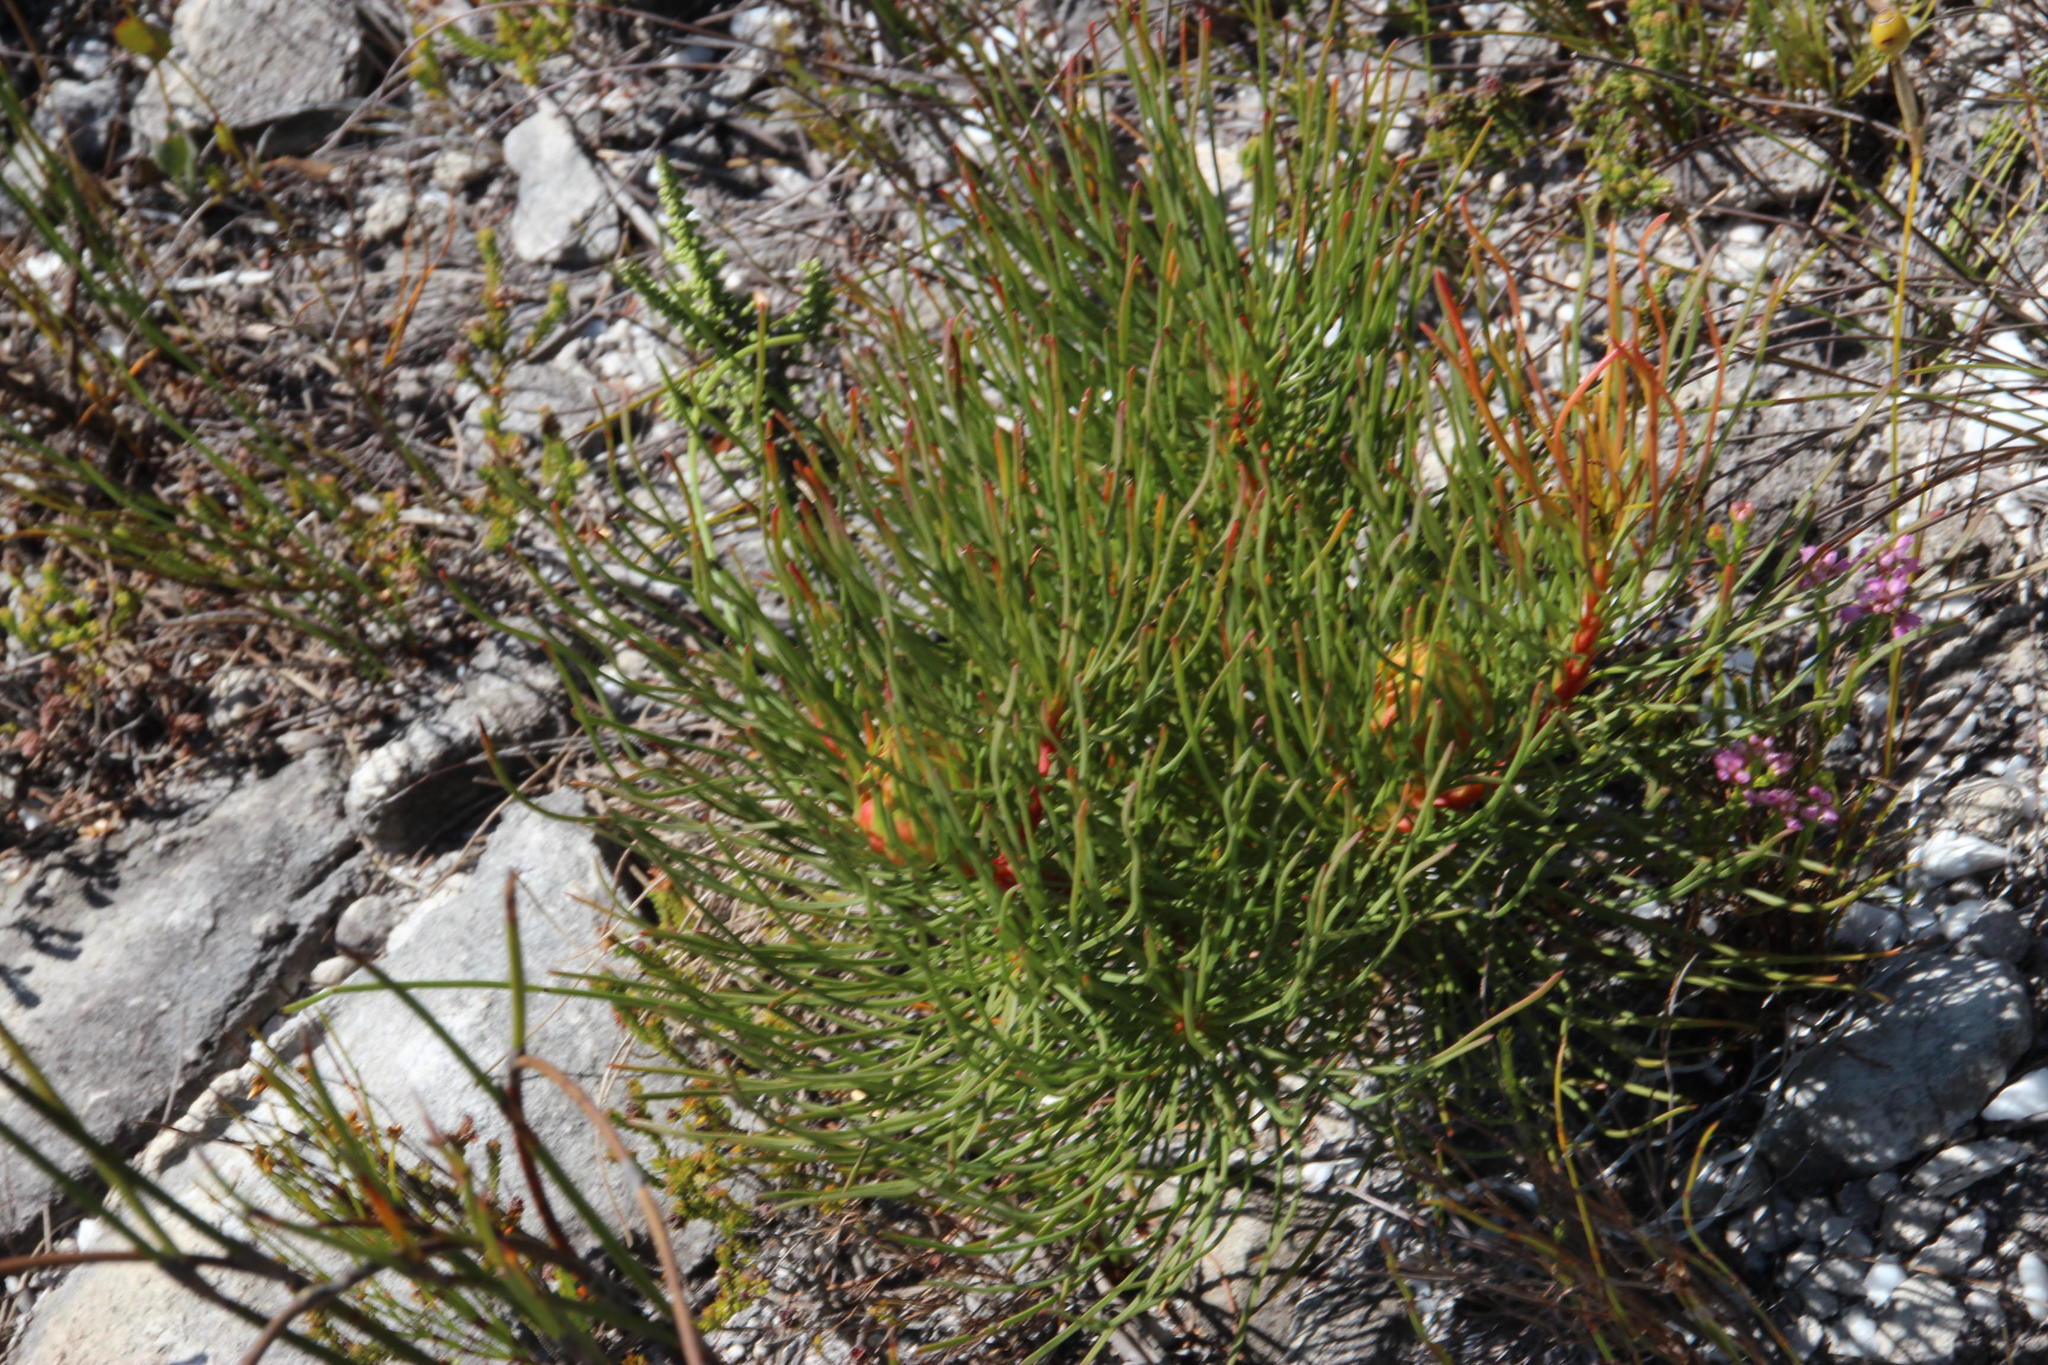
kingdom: Plantae
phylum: Tracheophyta
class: Magnoliopsida
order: Proteales
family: Proteaceae
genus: Aulax
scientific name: Aulax cancellata
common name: Channel-leaf featherbush
